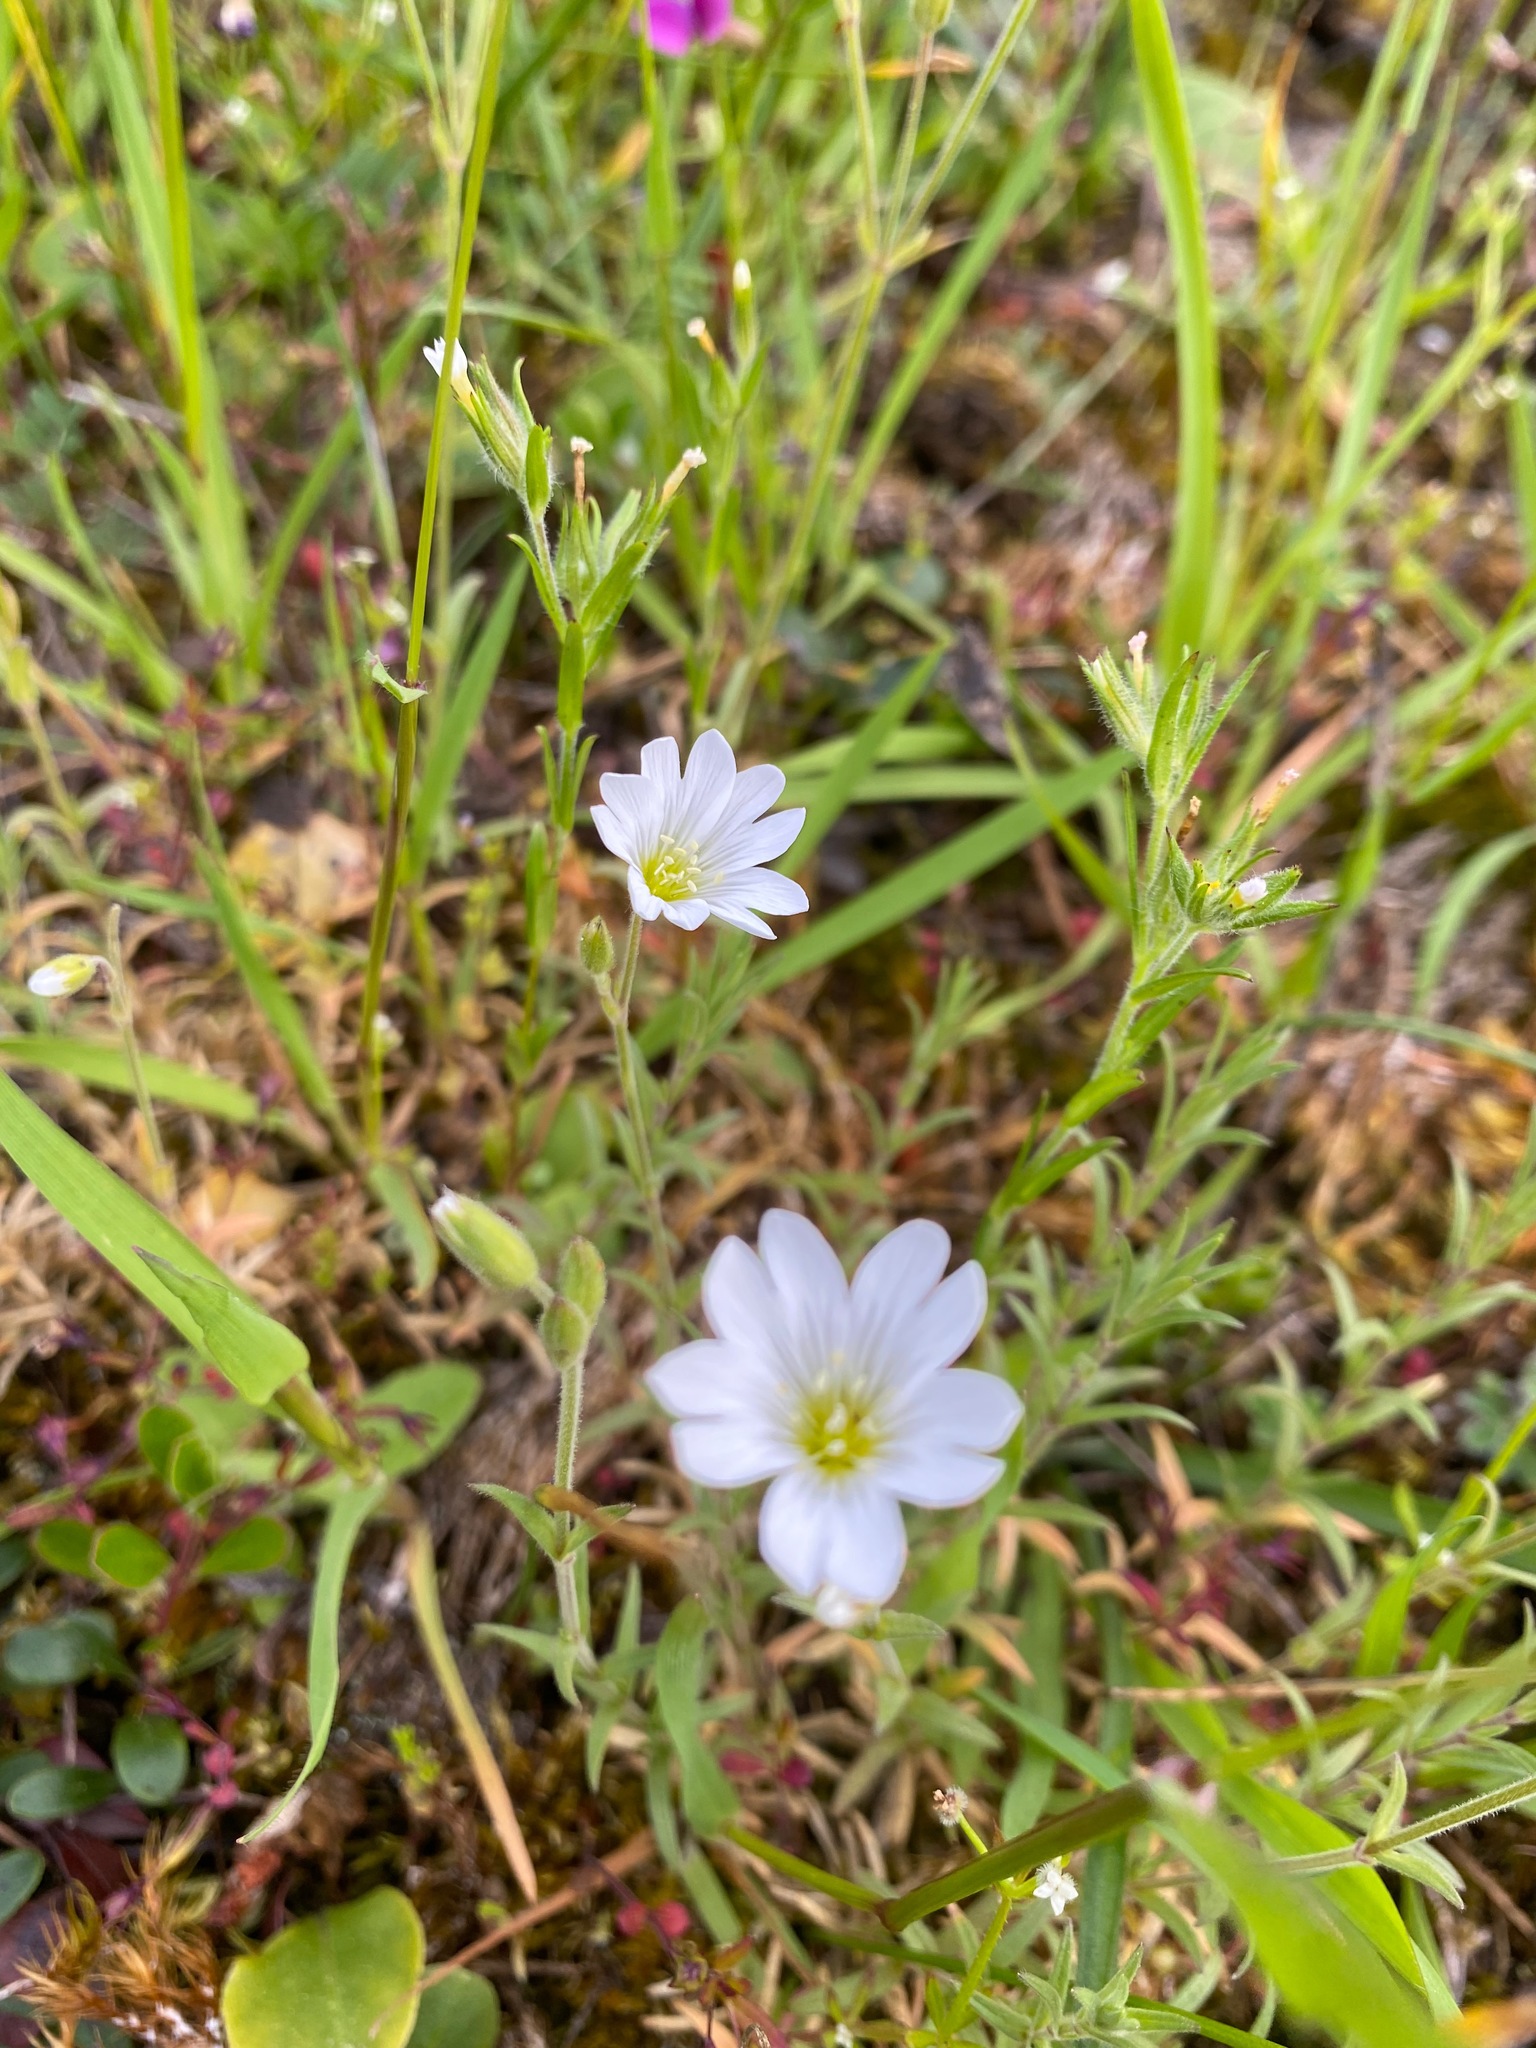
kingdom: Plantae
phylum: Tracheophyta
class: Magnoliopsida
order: Caryophyllales
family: Caryophyllaceae
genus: Cerastium
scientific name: Cerastium arvense
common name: Field mouse-ear
